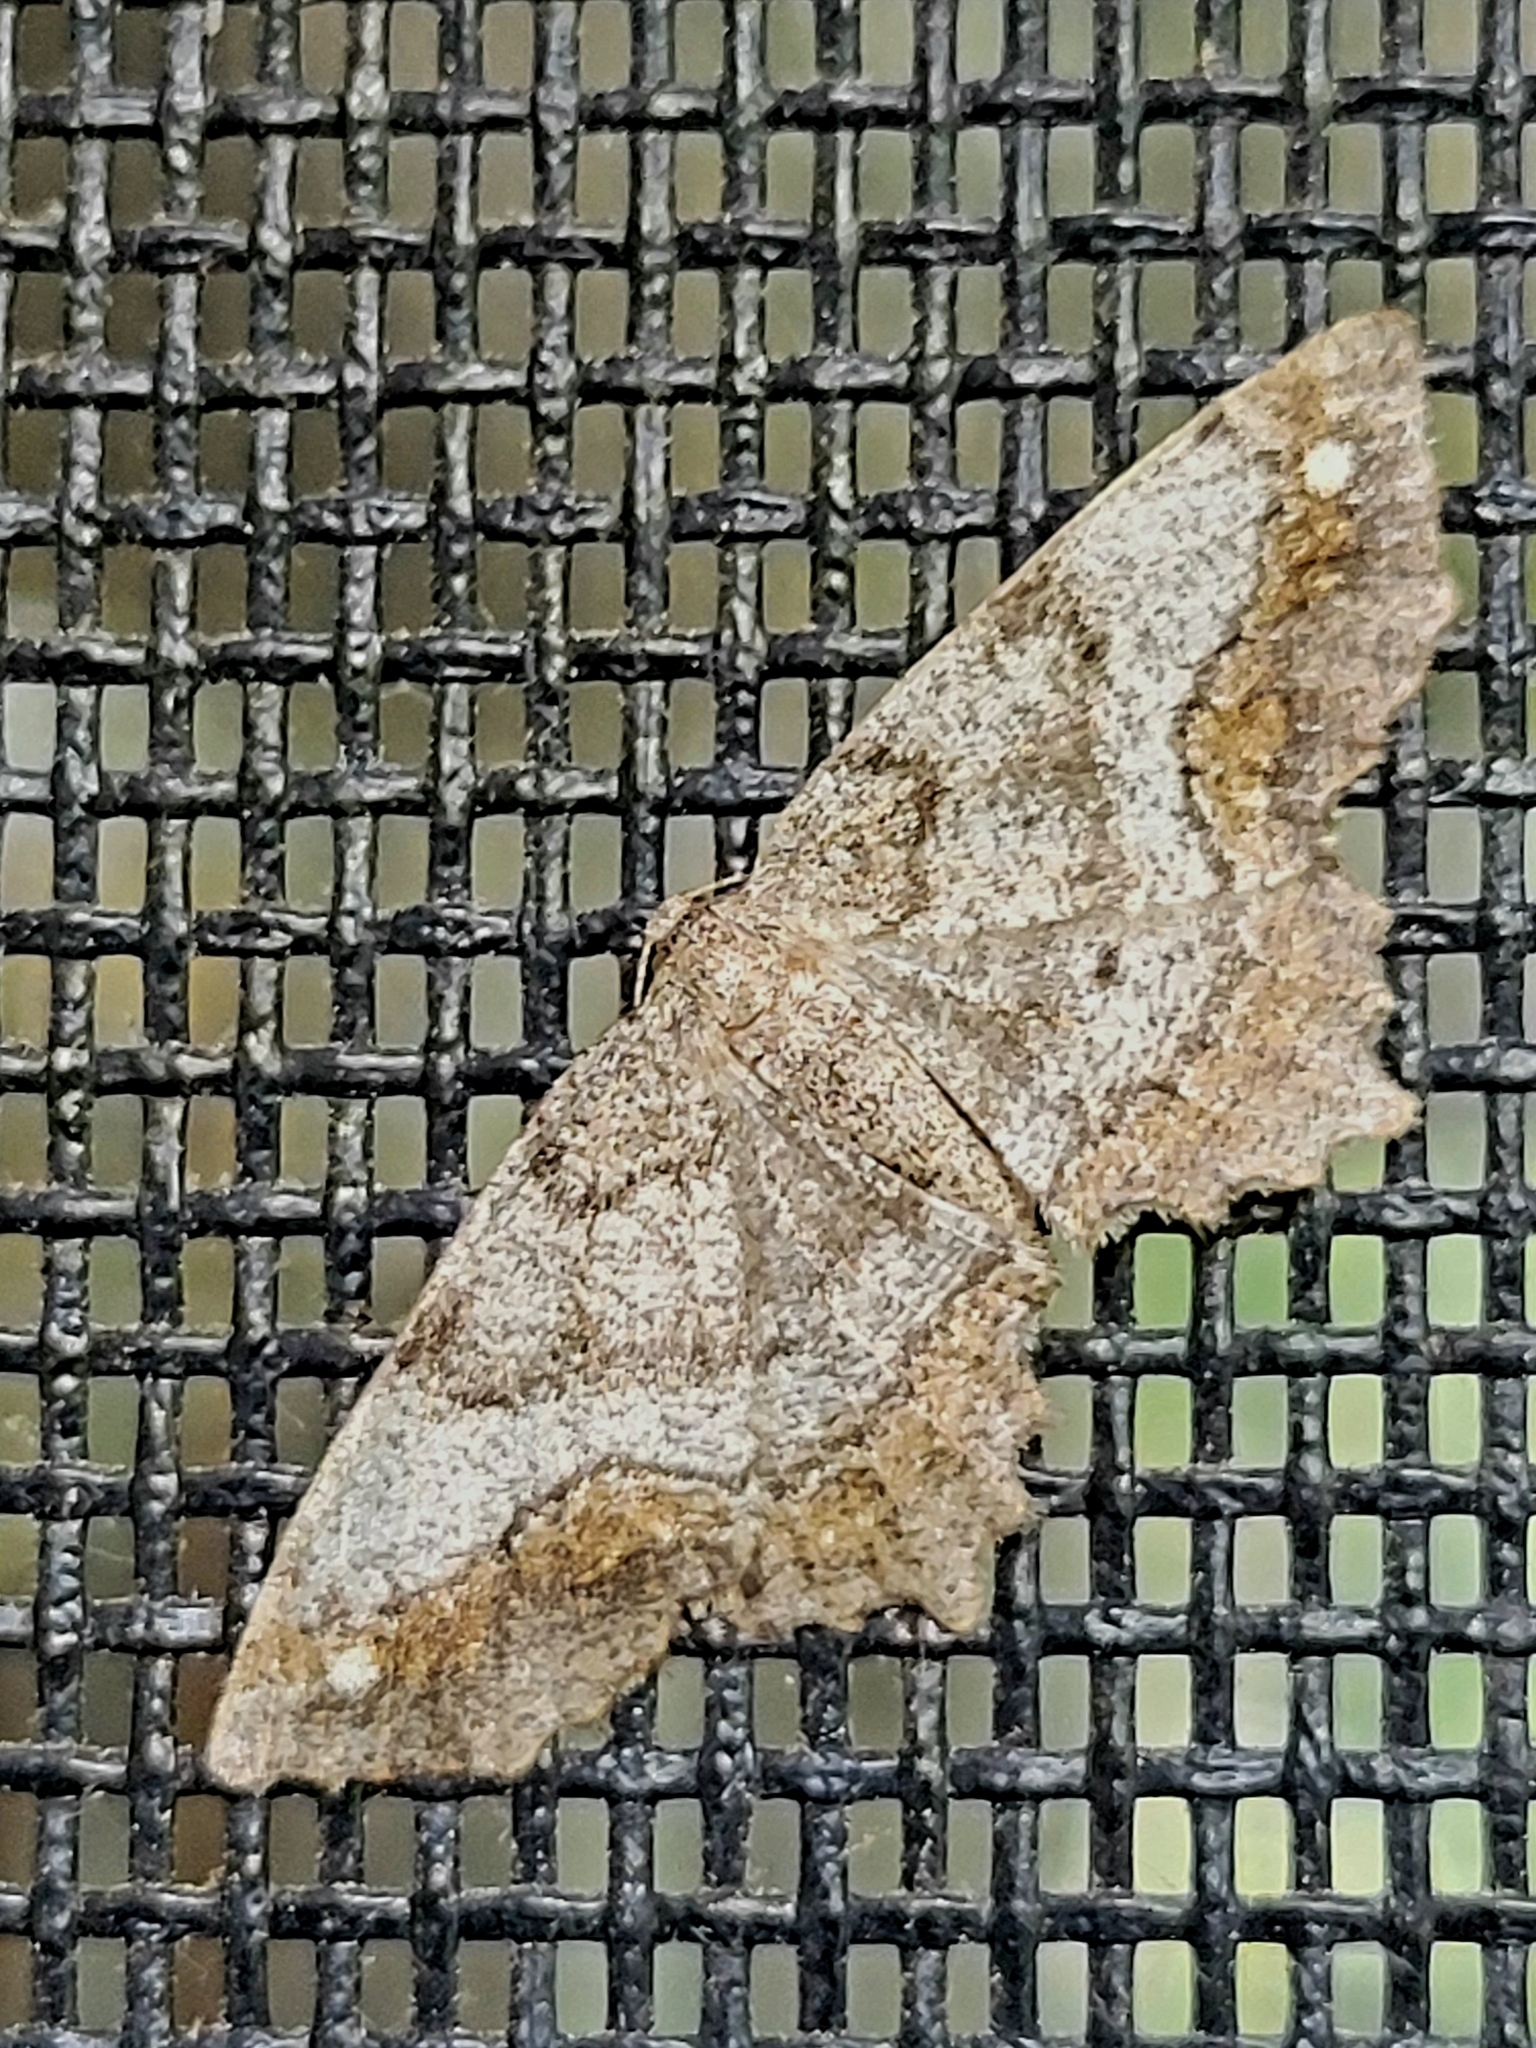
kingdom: Animalia
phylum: Arthropoda
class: Insecta
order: Lepidoptera
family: Geometridae
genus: Hypagyrtis
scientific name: Hypagyrtis unipunctata
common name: One-spotted variant
